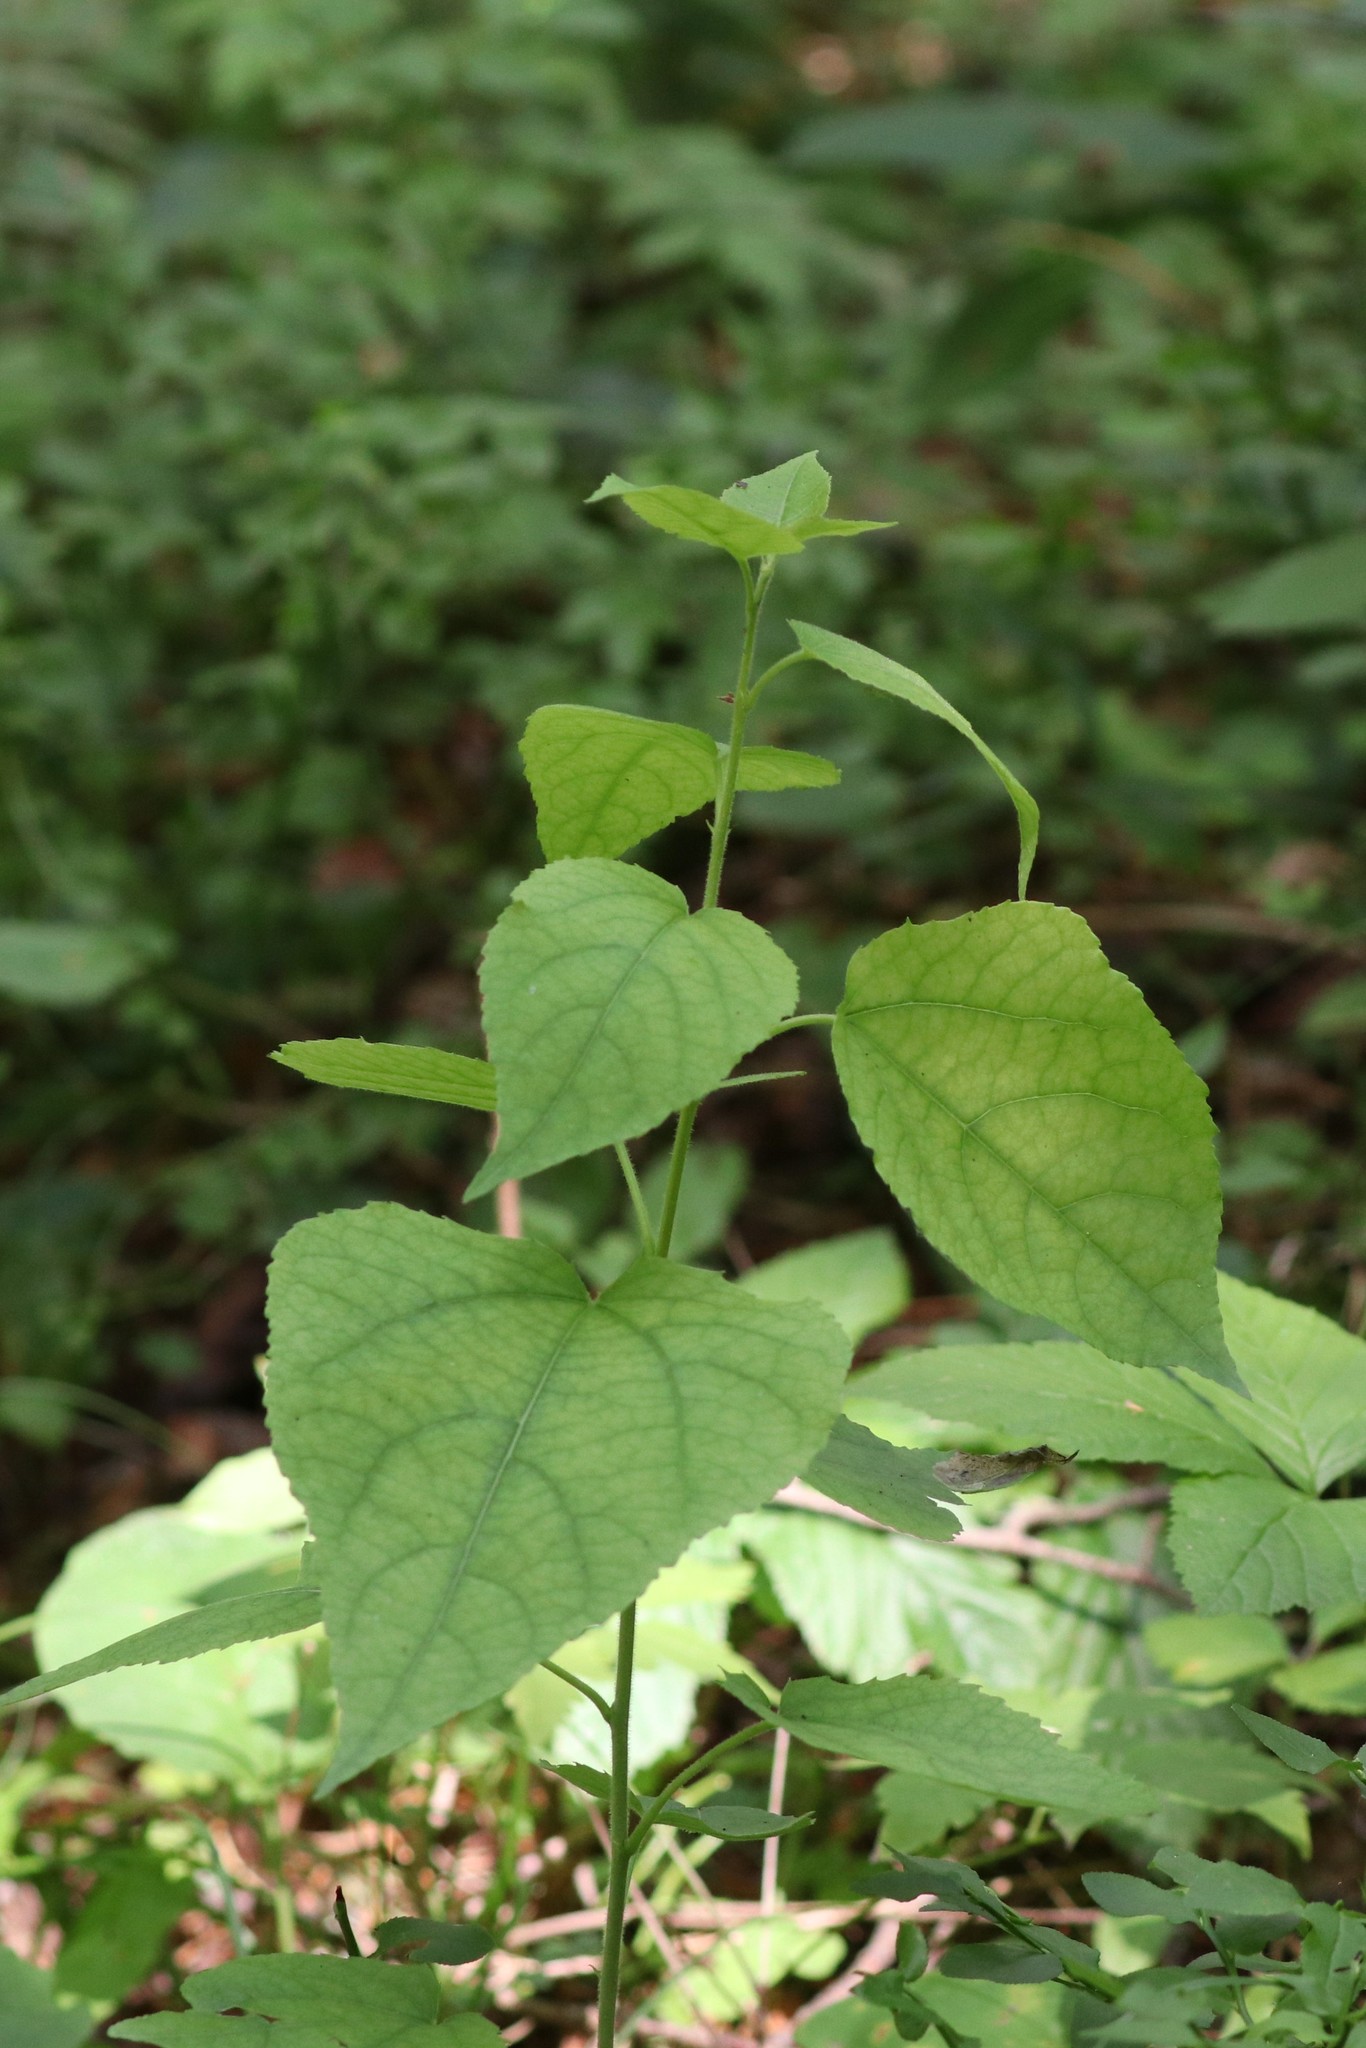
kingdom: Plantae
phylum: Tracheophyta
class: Magnoliopsida
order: Malpighiales
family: Salicaceae
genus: Populus
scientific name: Populus tremula
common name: European aspen
